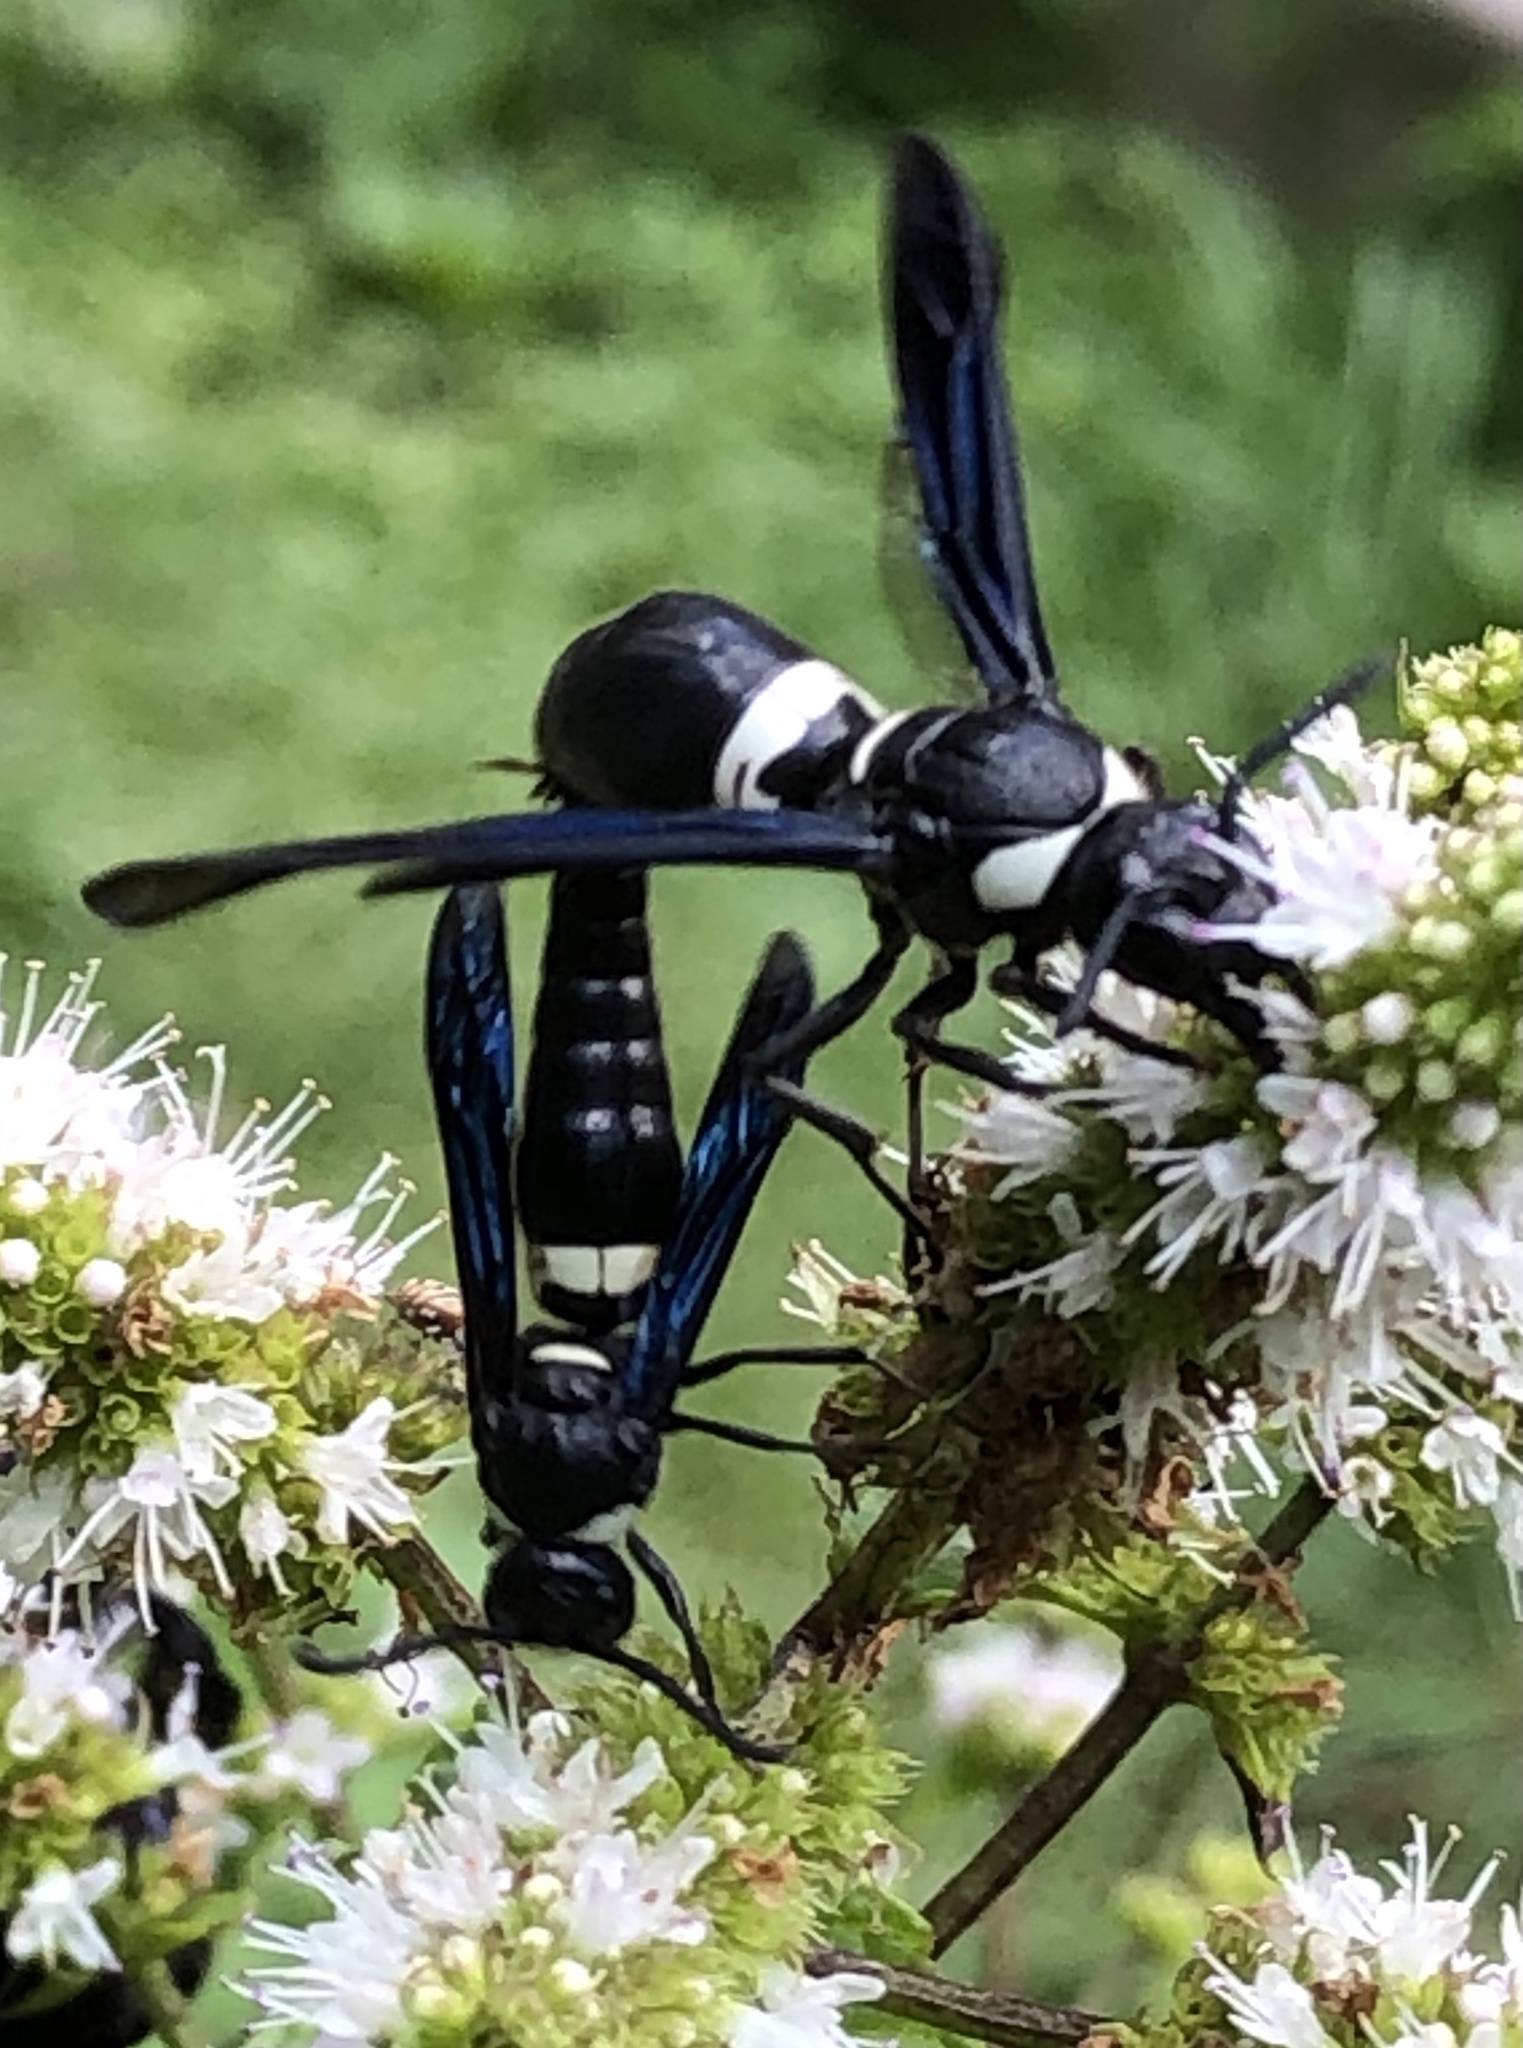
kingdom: Animalia
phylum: Arthropoda
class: Insecta
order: Hymenoptera
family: Eumenidae
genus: Monobia
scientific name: Monobia quadridens
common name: Four-toothed mason wasp
